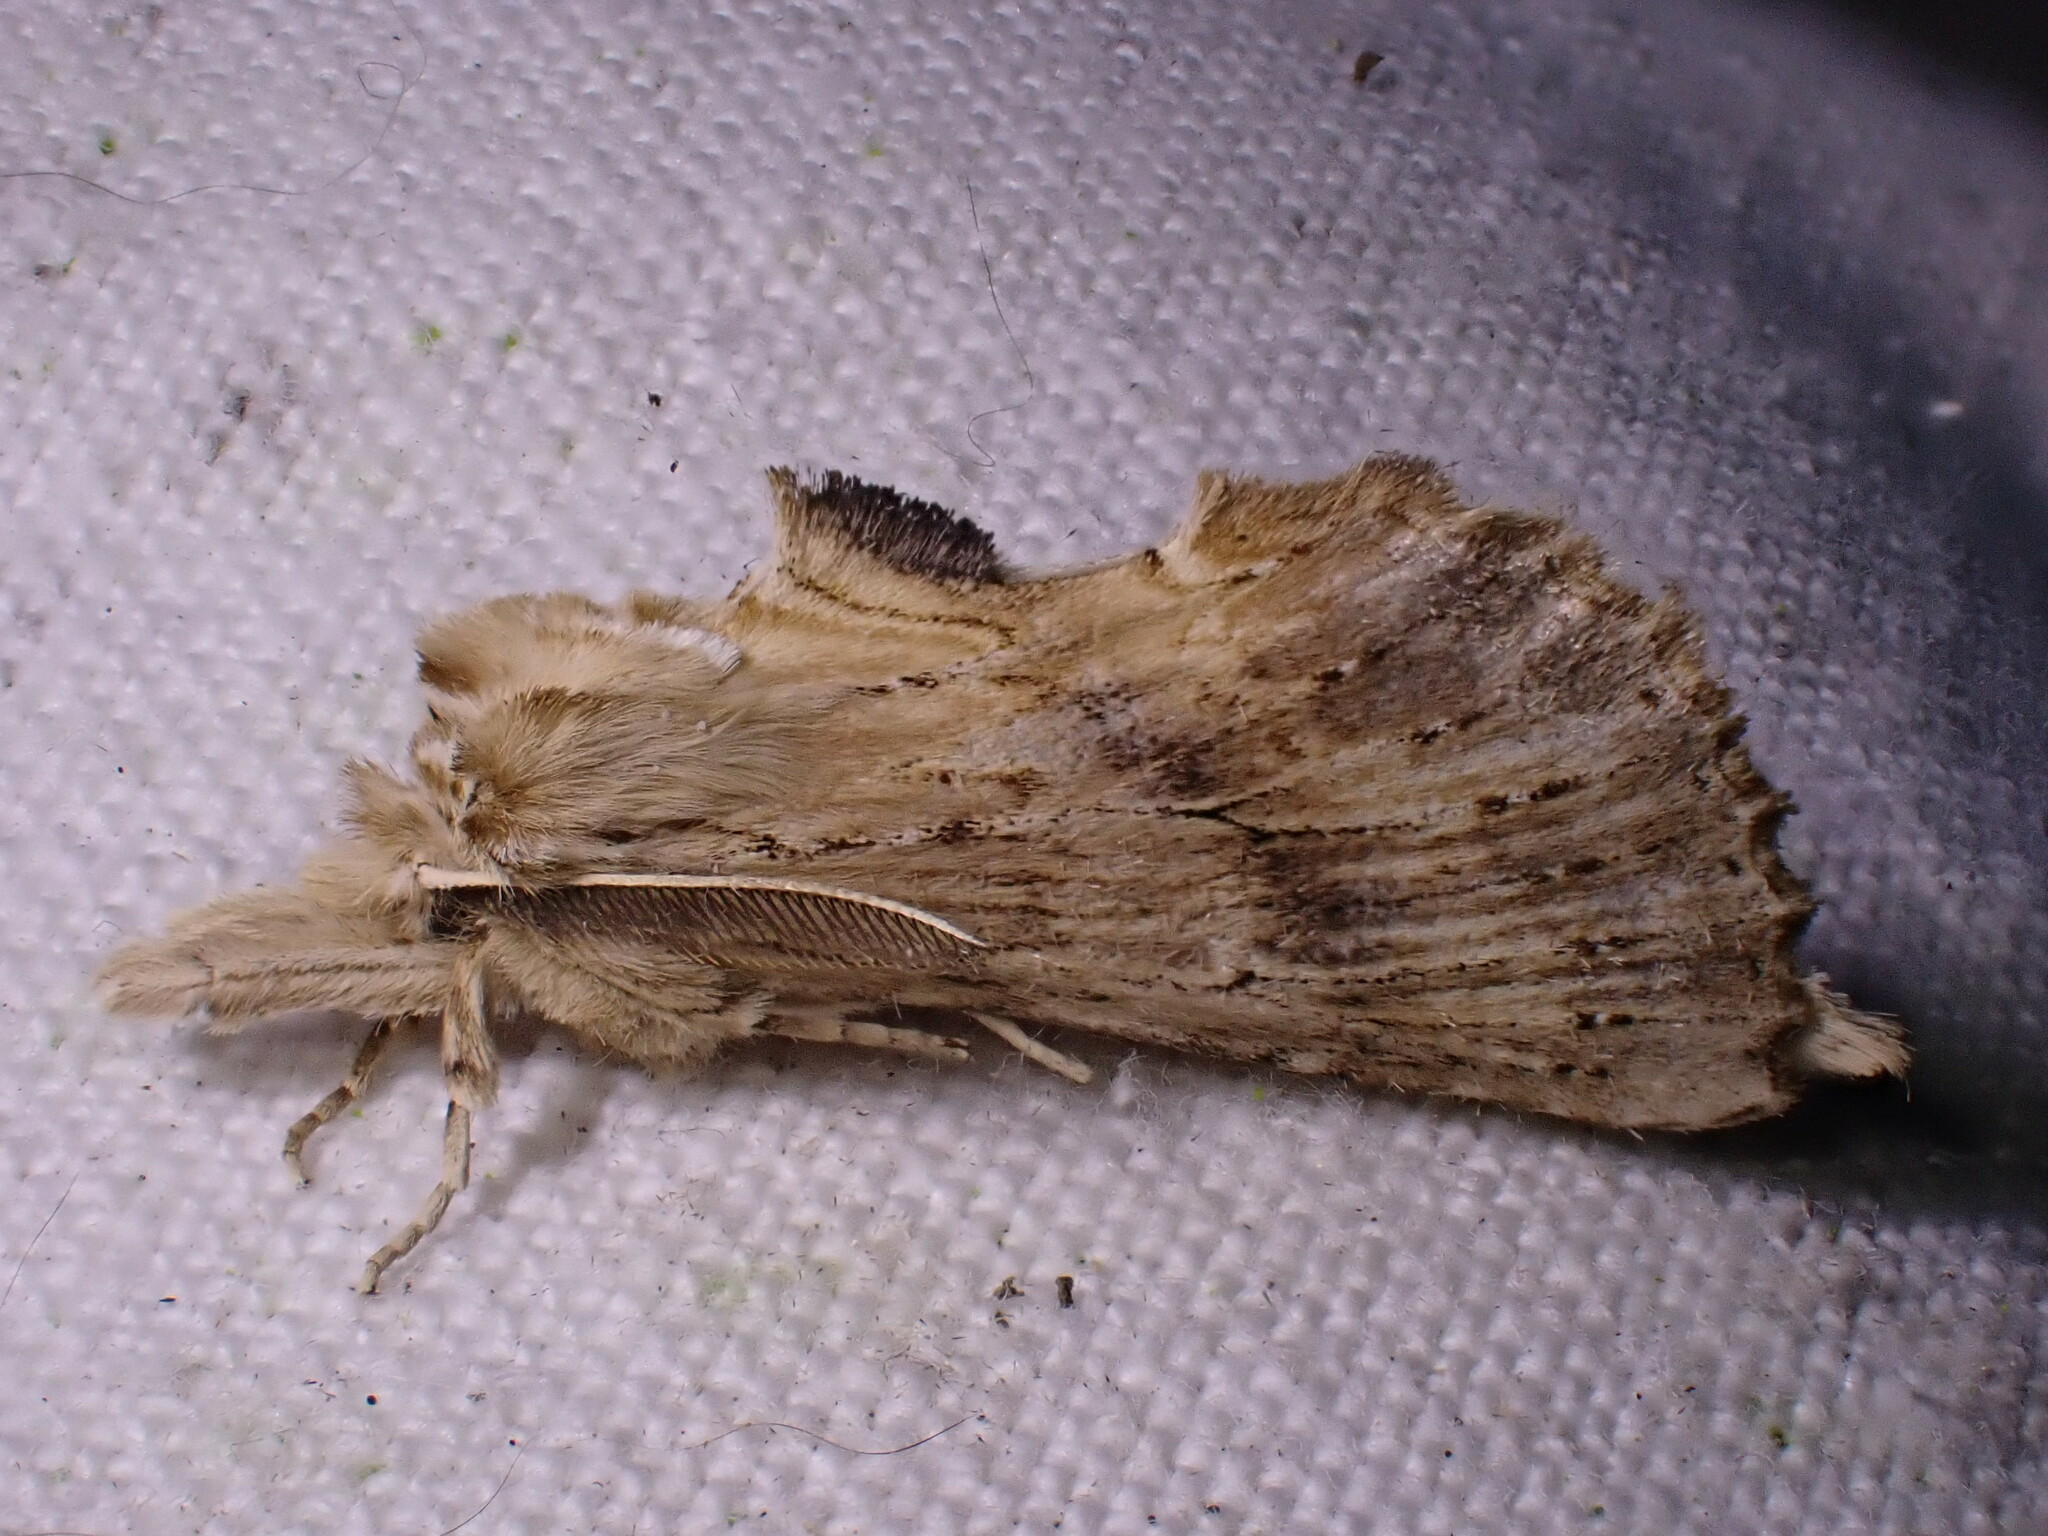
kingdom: Animalia
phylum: Arthropoda
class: Insecta
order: Lepidoptera
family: Notodontidae
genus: Pterostoma
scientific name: Pterostoma palpina
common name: Pale prominent
